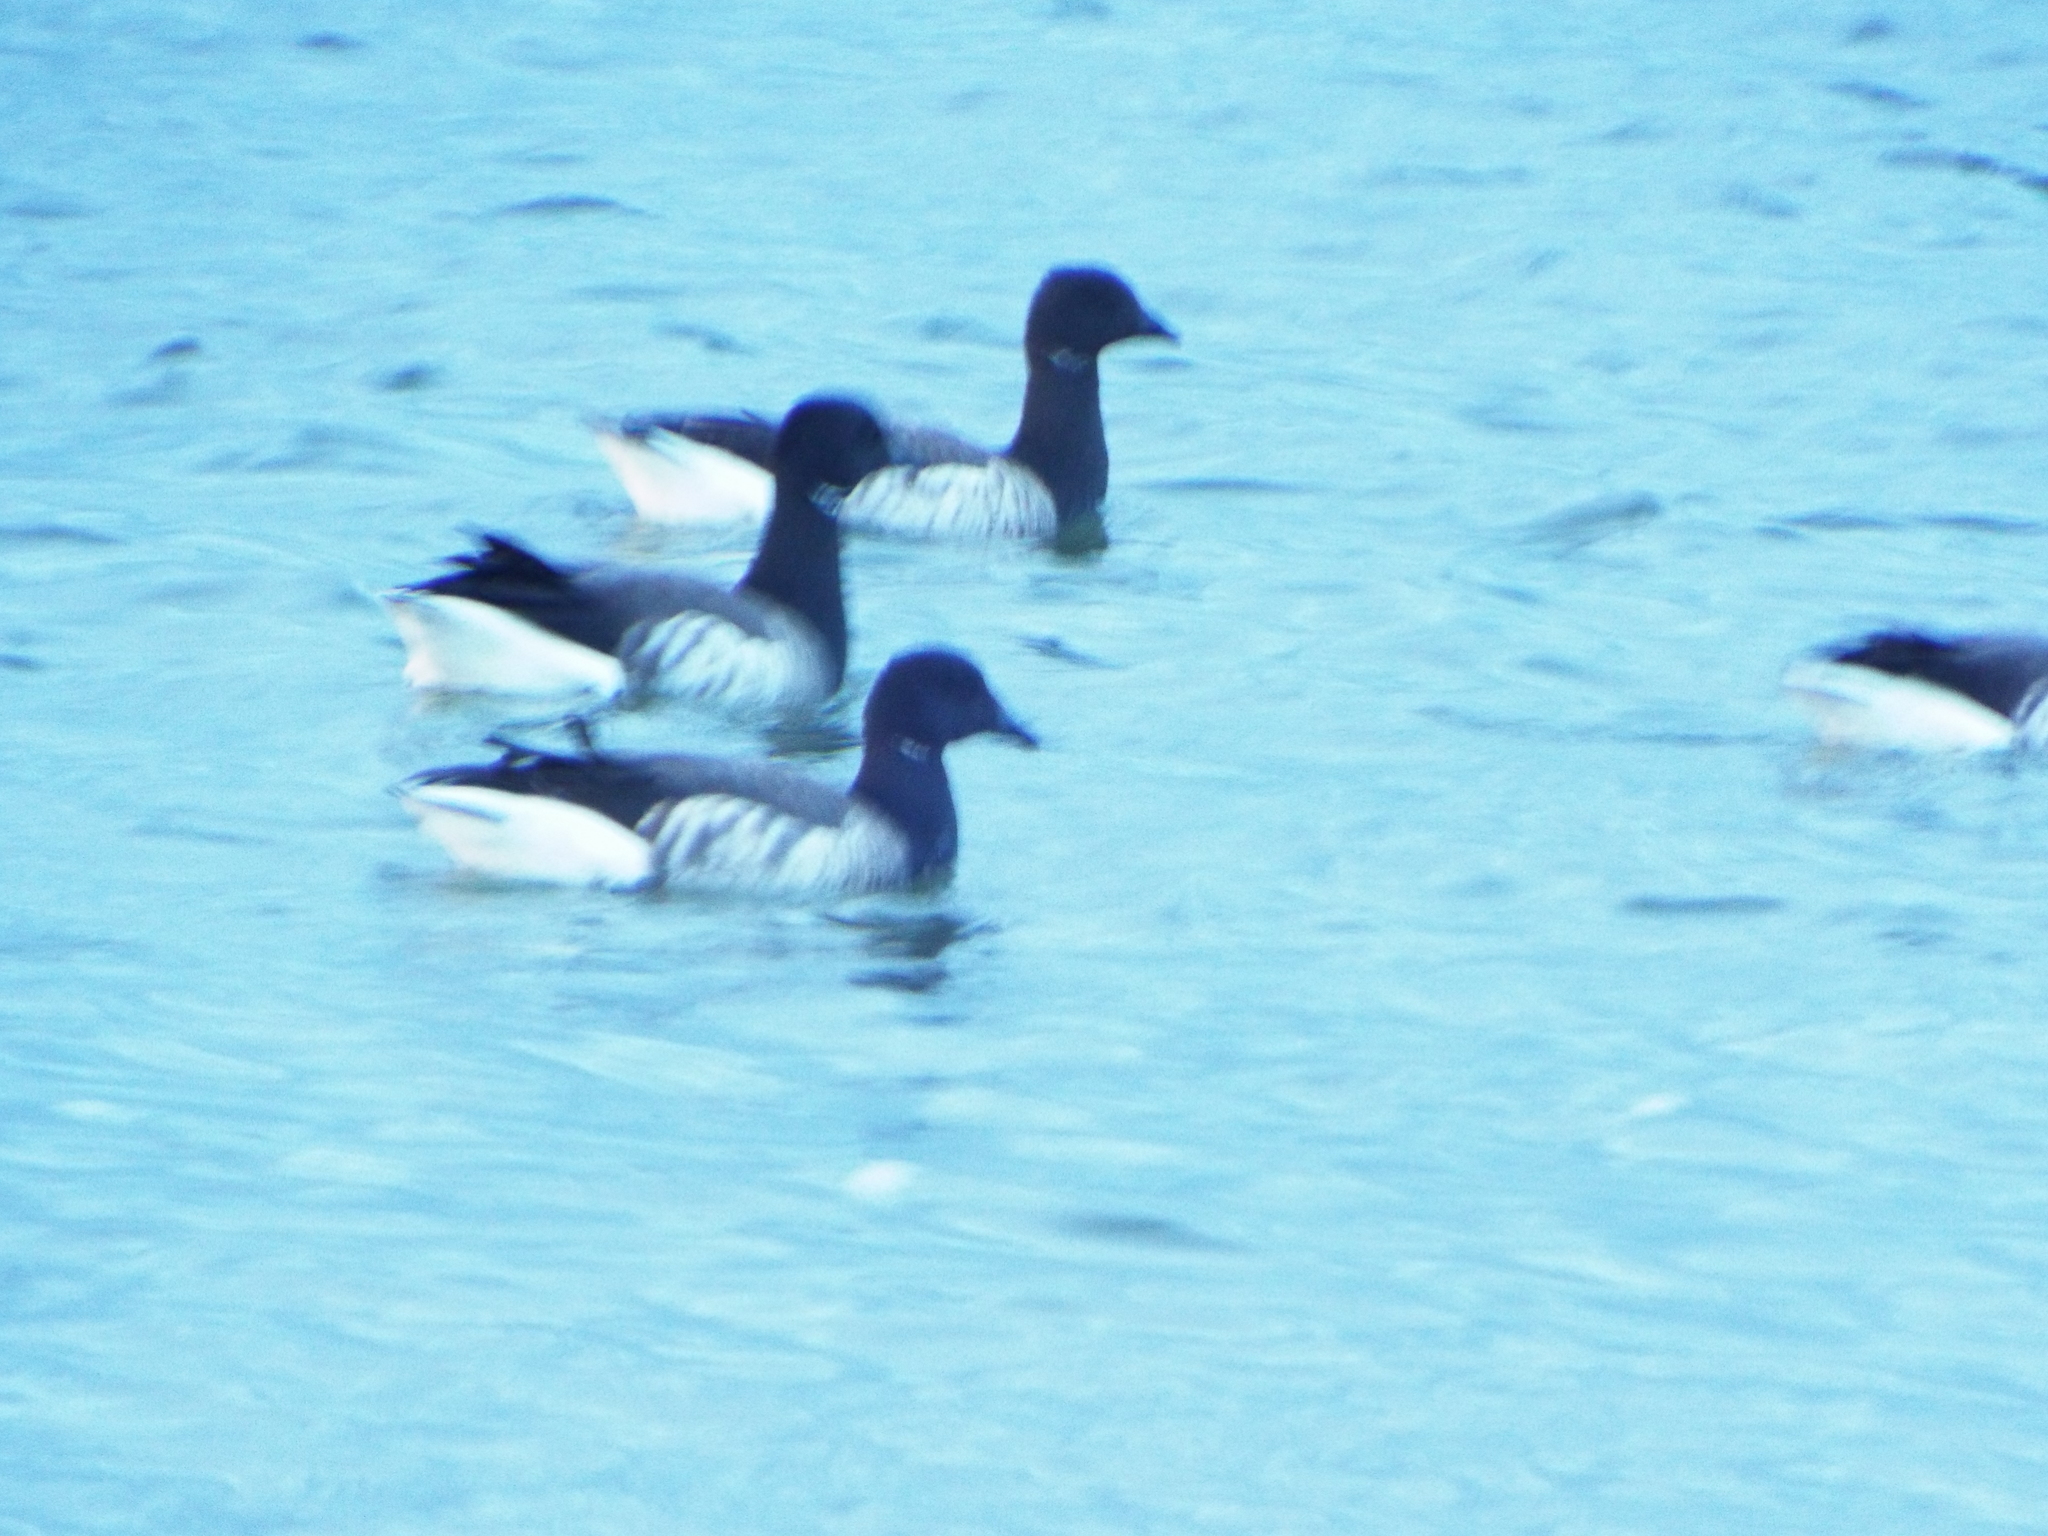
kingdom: Animalia
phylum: Chordata
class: Aves
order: Anseriformes
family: Anatidae
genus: Branta
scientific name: Branta bernicla
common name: Brant goose
